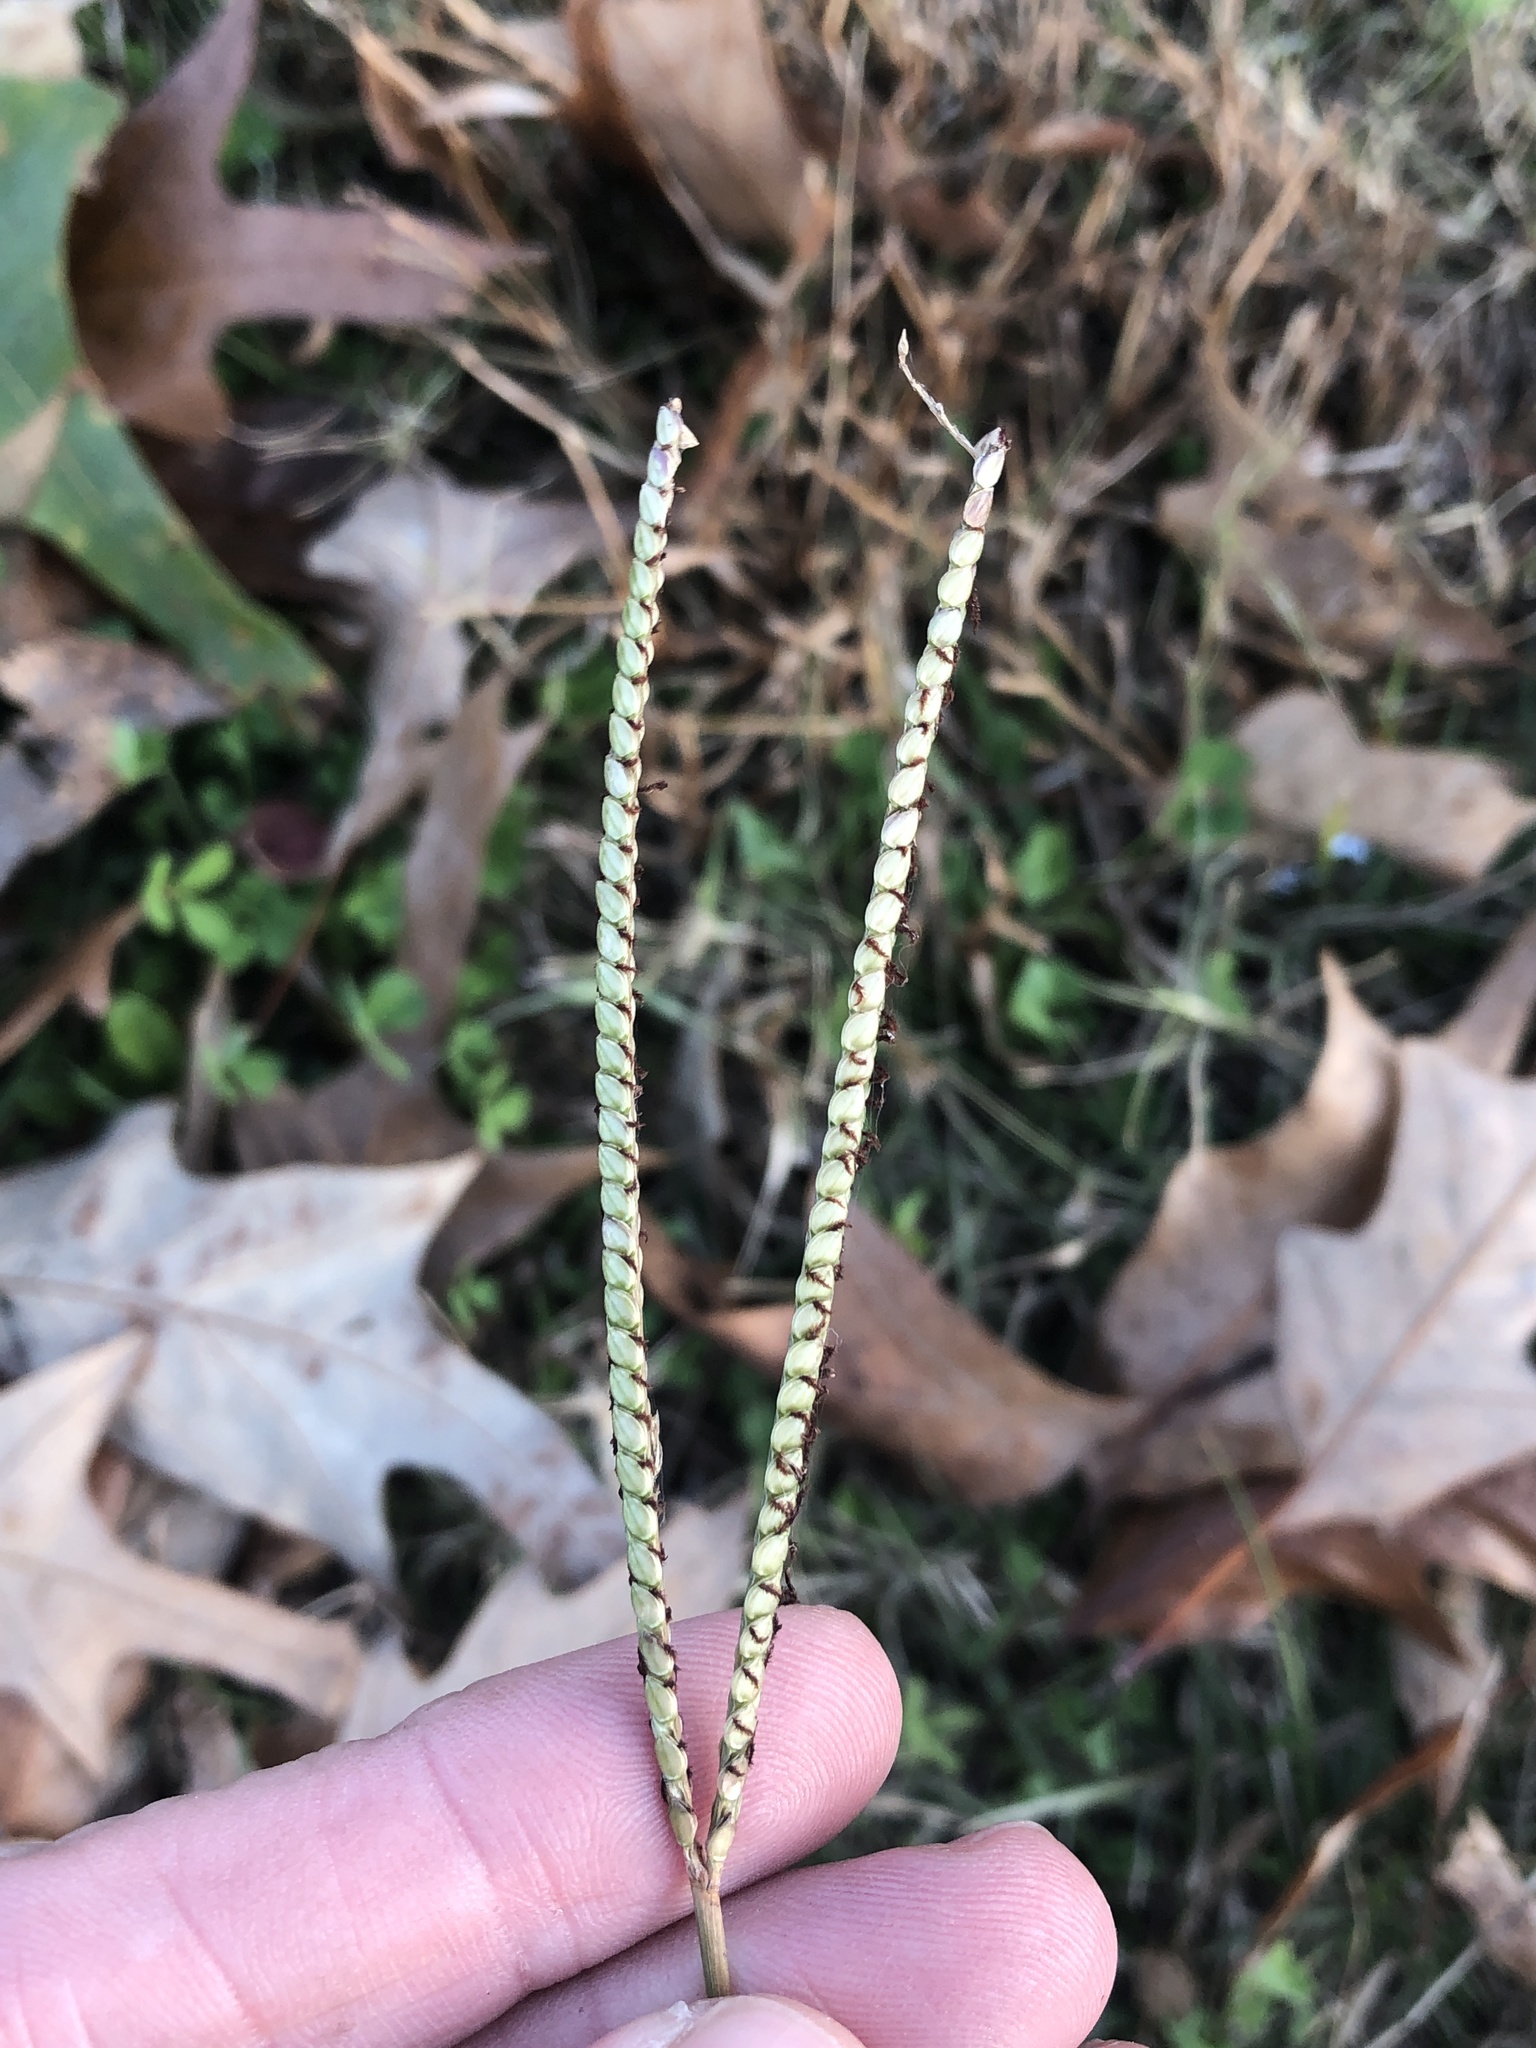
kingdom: Plantae
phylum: Tracheophyta
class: Liliopsida
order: Poales
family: Poaceae
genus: Paspalum
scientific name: Paspalum notatum
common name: Bahiagrass
